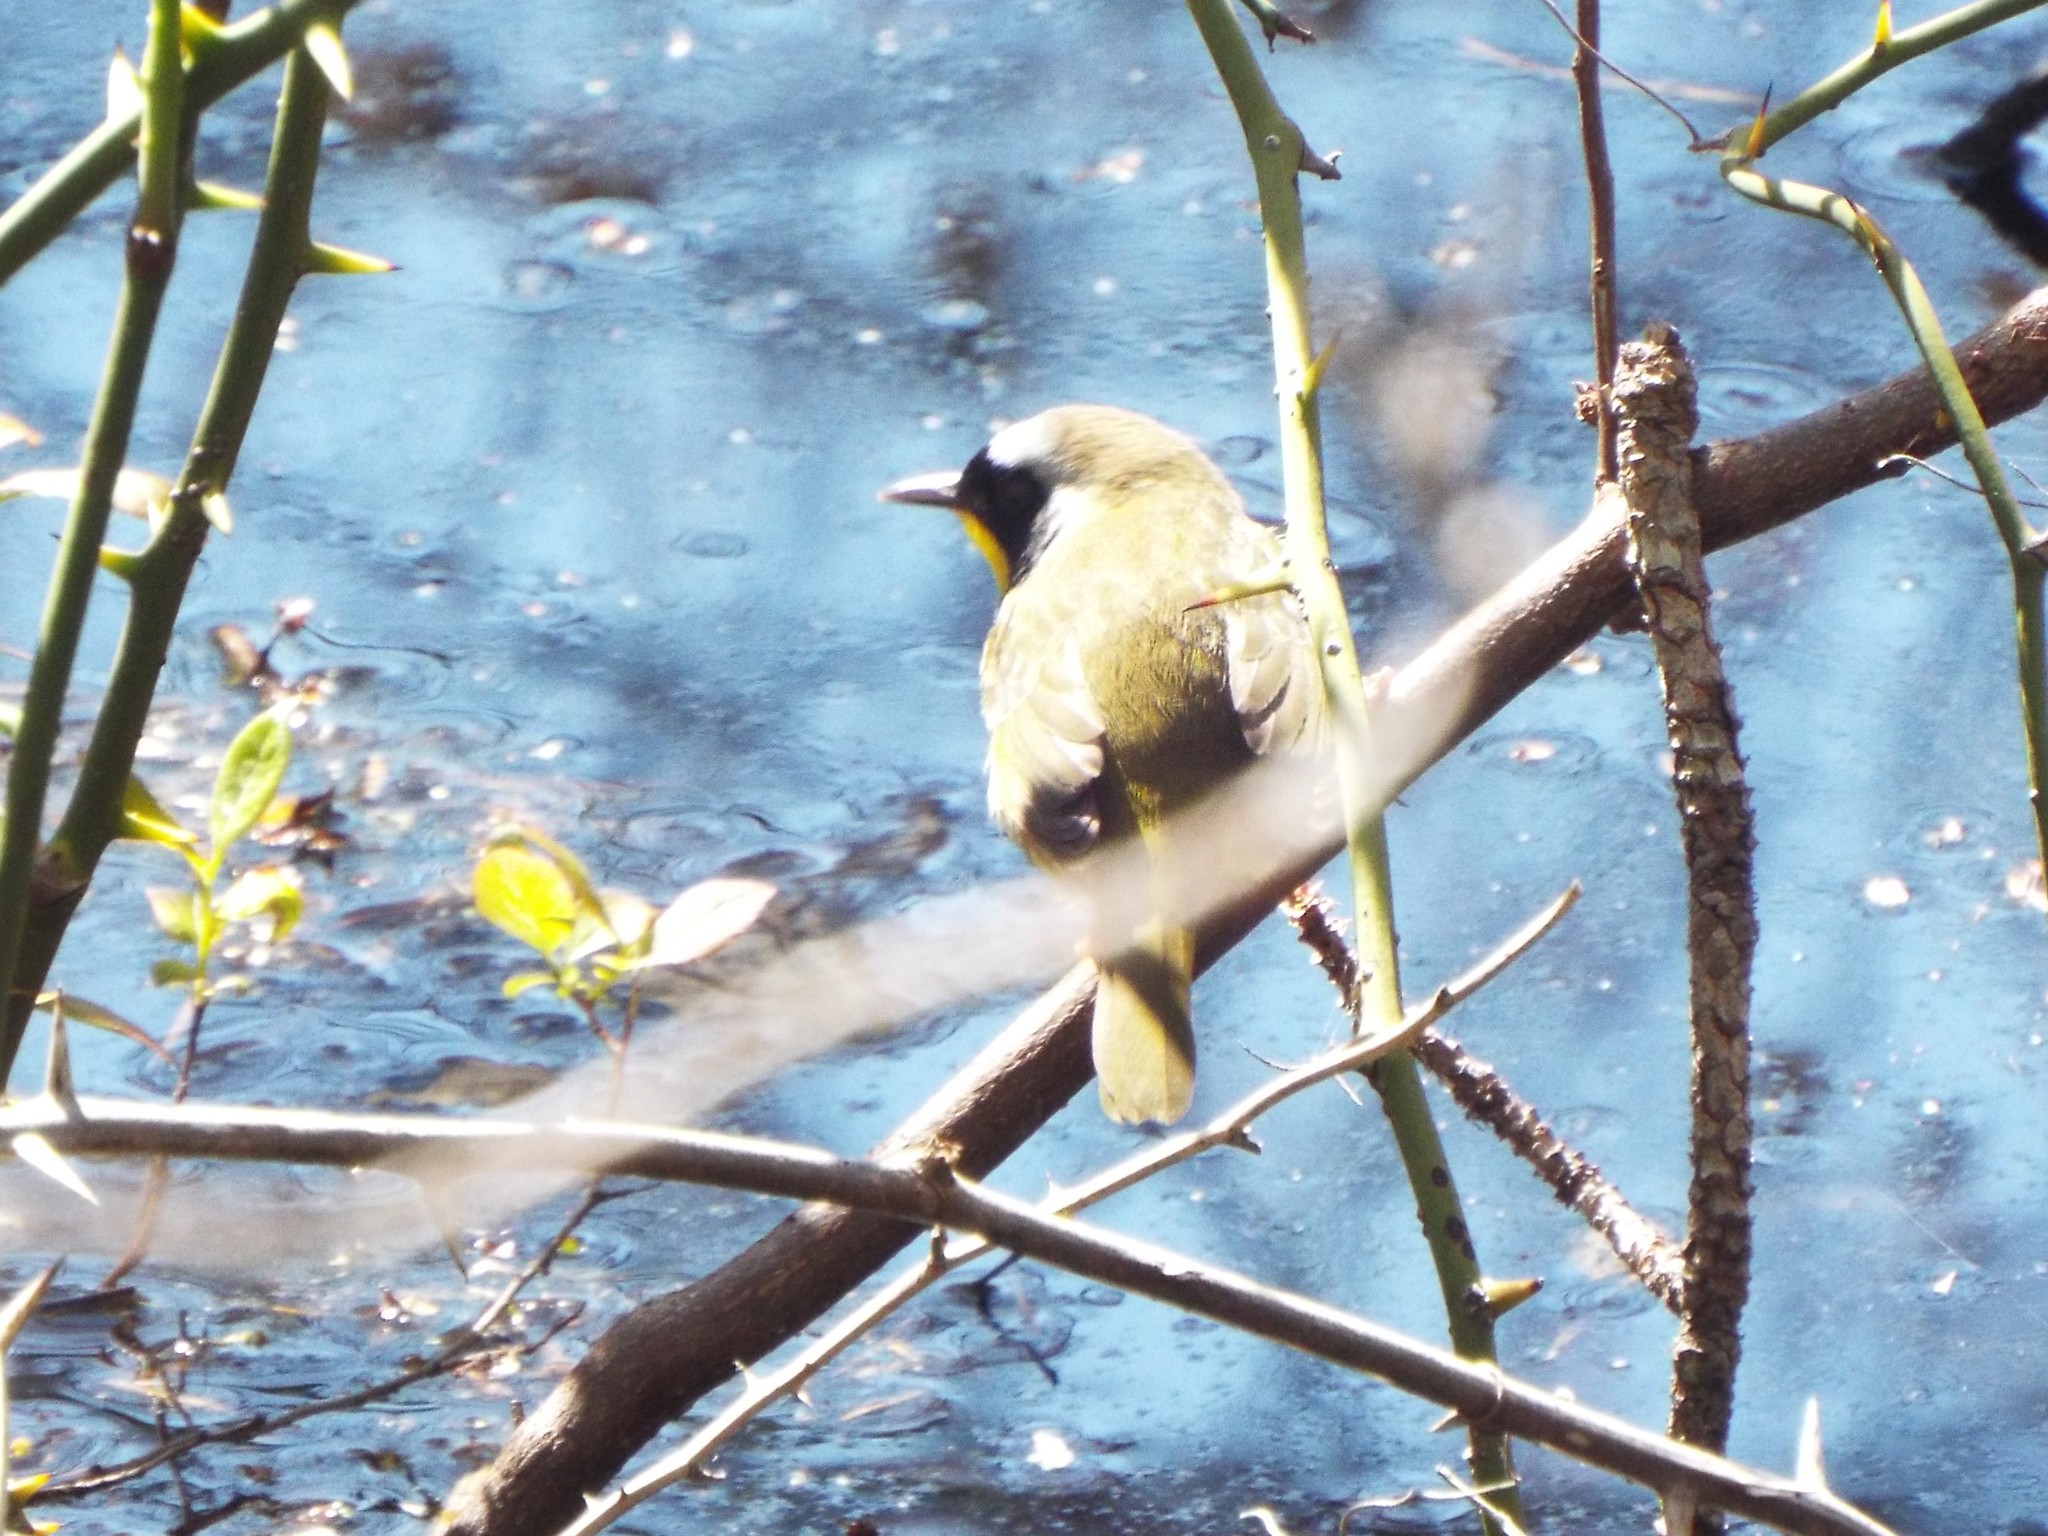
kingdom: Animalia
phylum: Chordata
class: Aves
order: Passeriformes
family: Parulidae
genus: Geothlypis
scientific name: Geothlypis trichas
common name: Common yellowthroat
